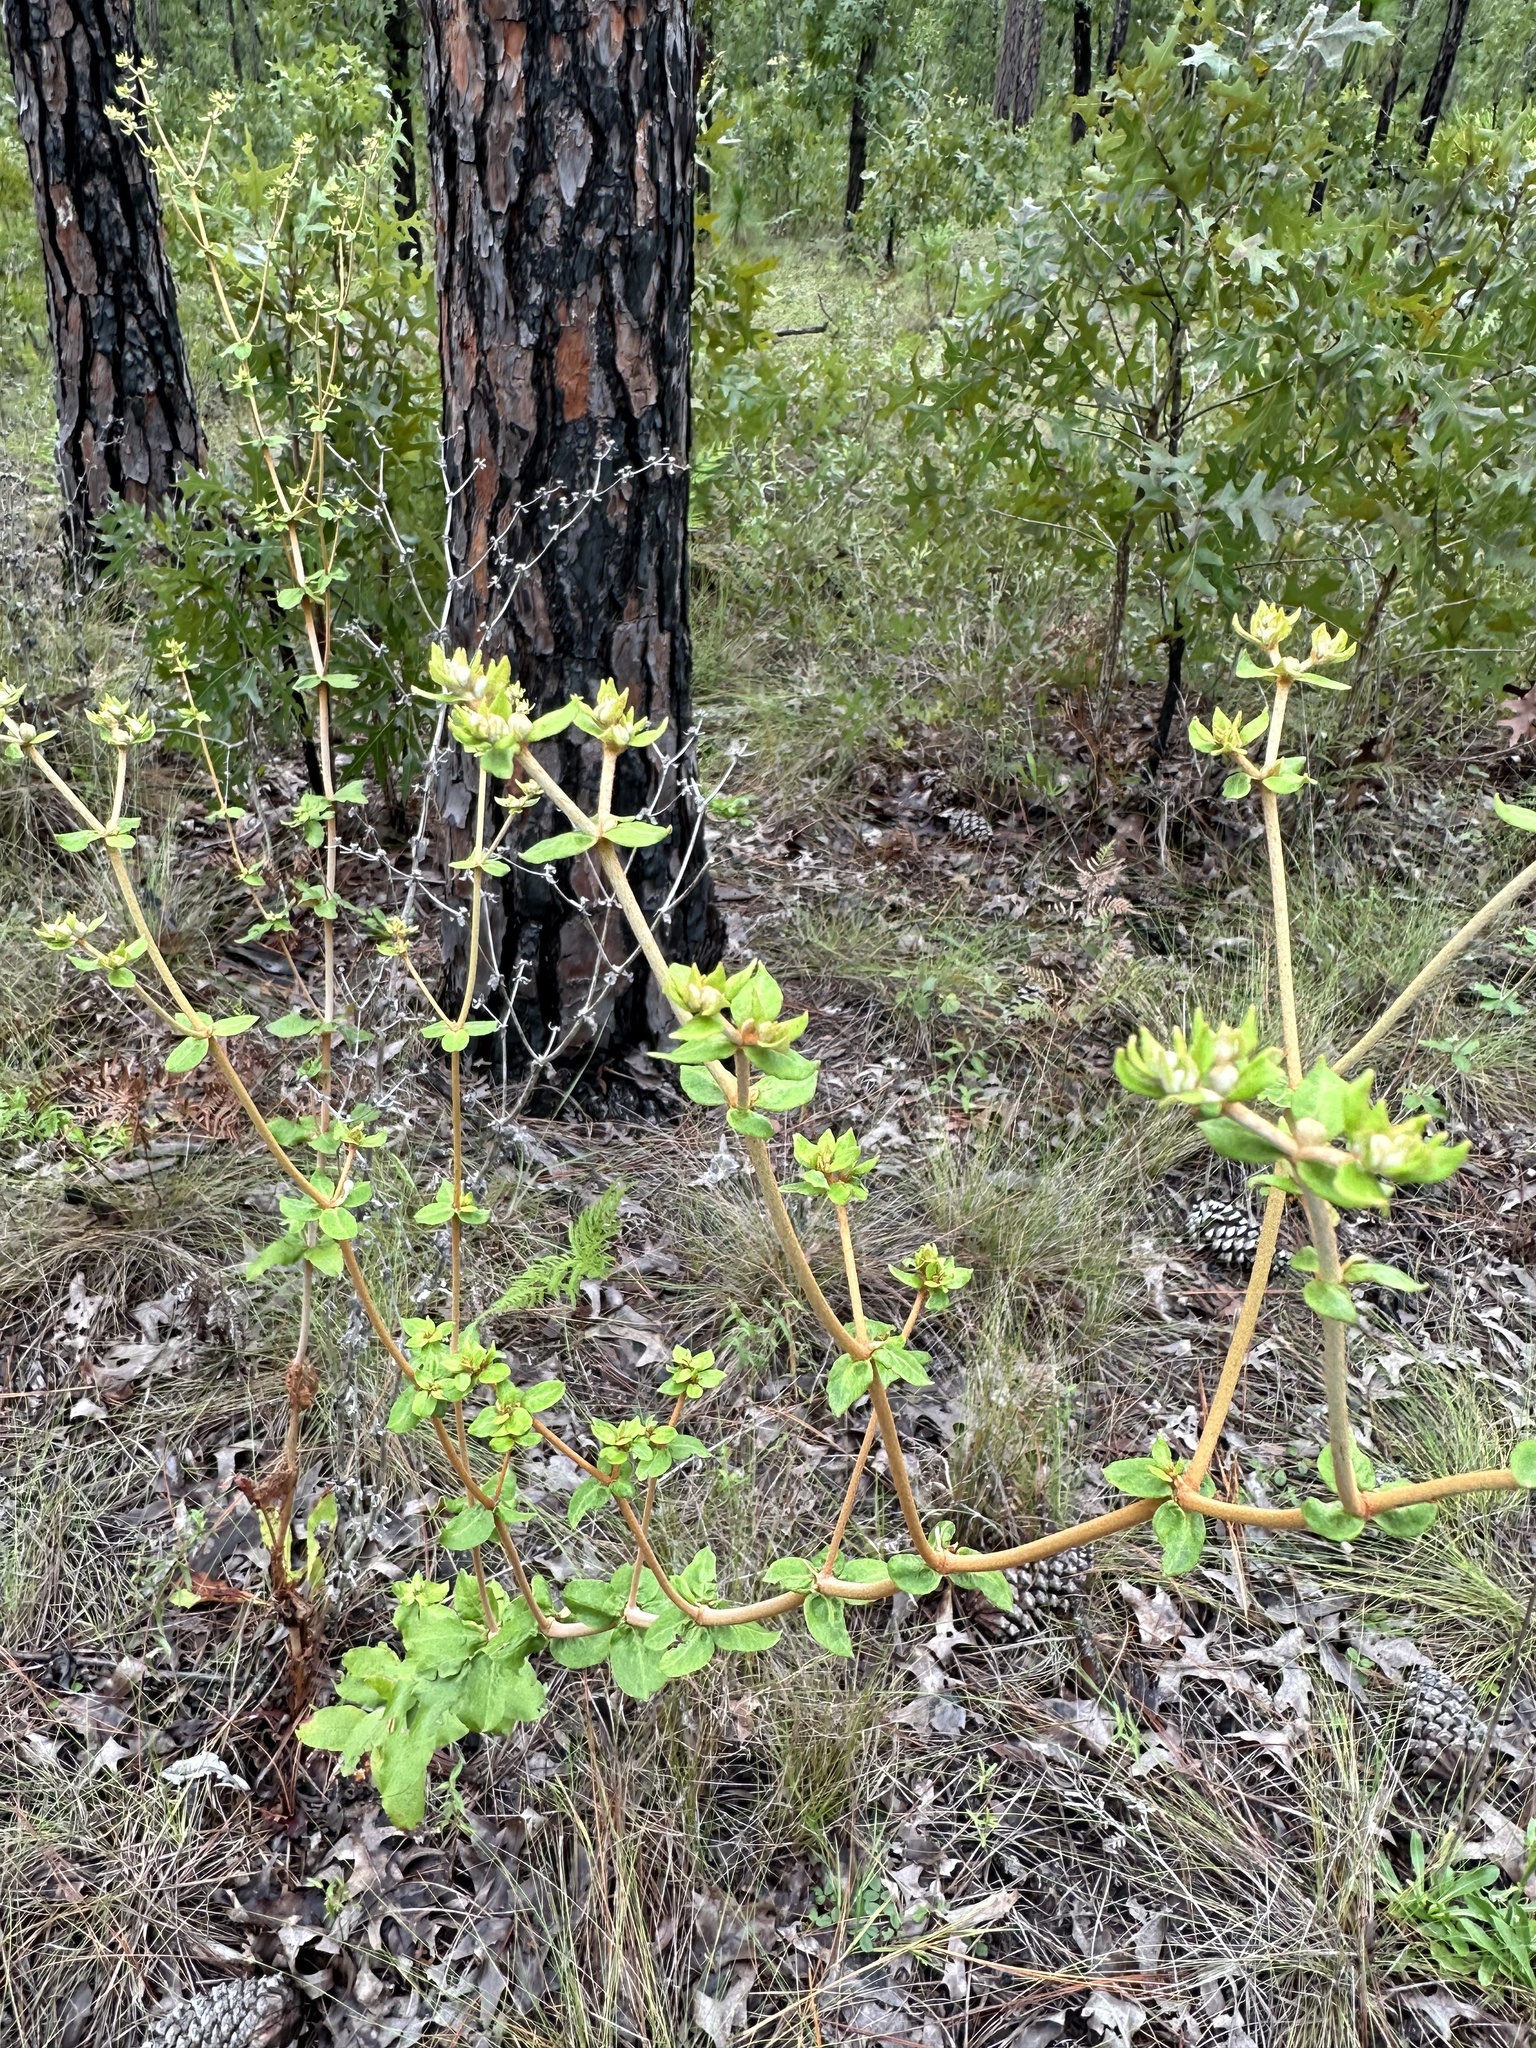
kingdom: Plantae
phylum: Tracheophyta
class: Magnoliopsida
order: Caryophyllales
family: Polygonaceae
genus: Eriogonum
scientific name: Eriogonum tomentosum
